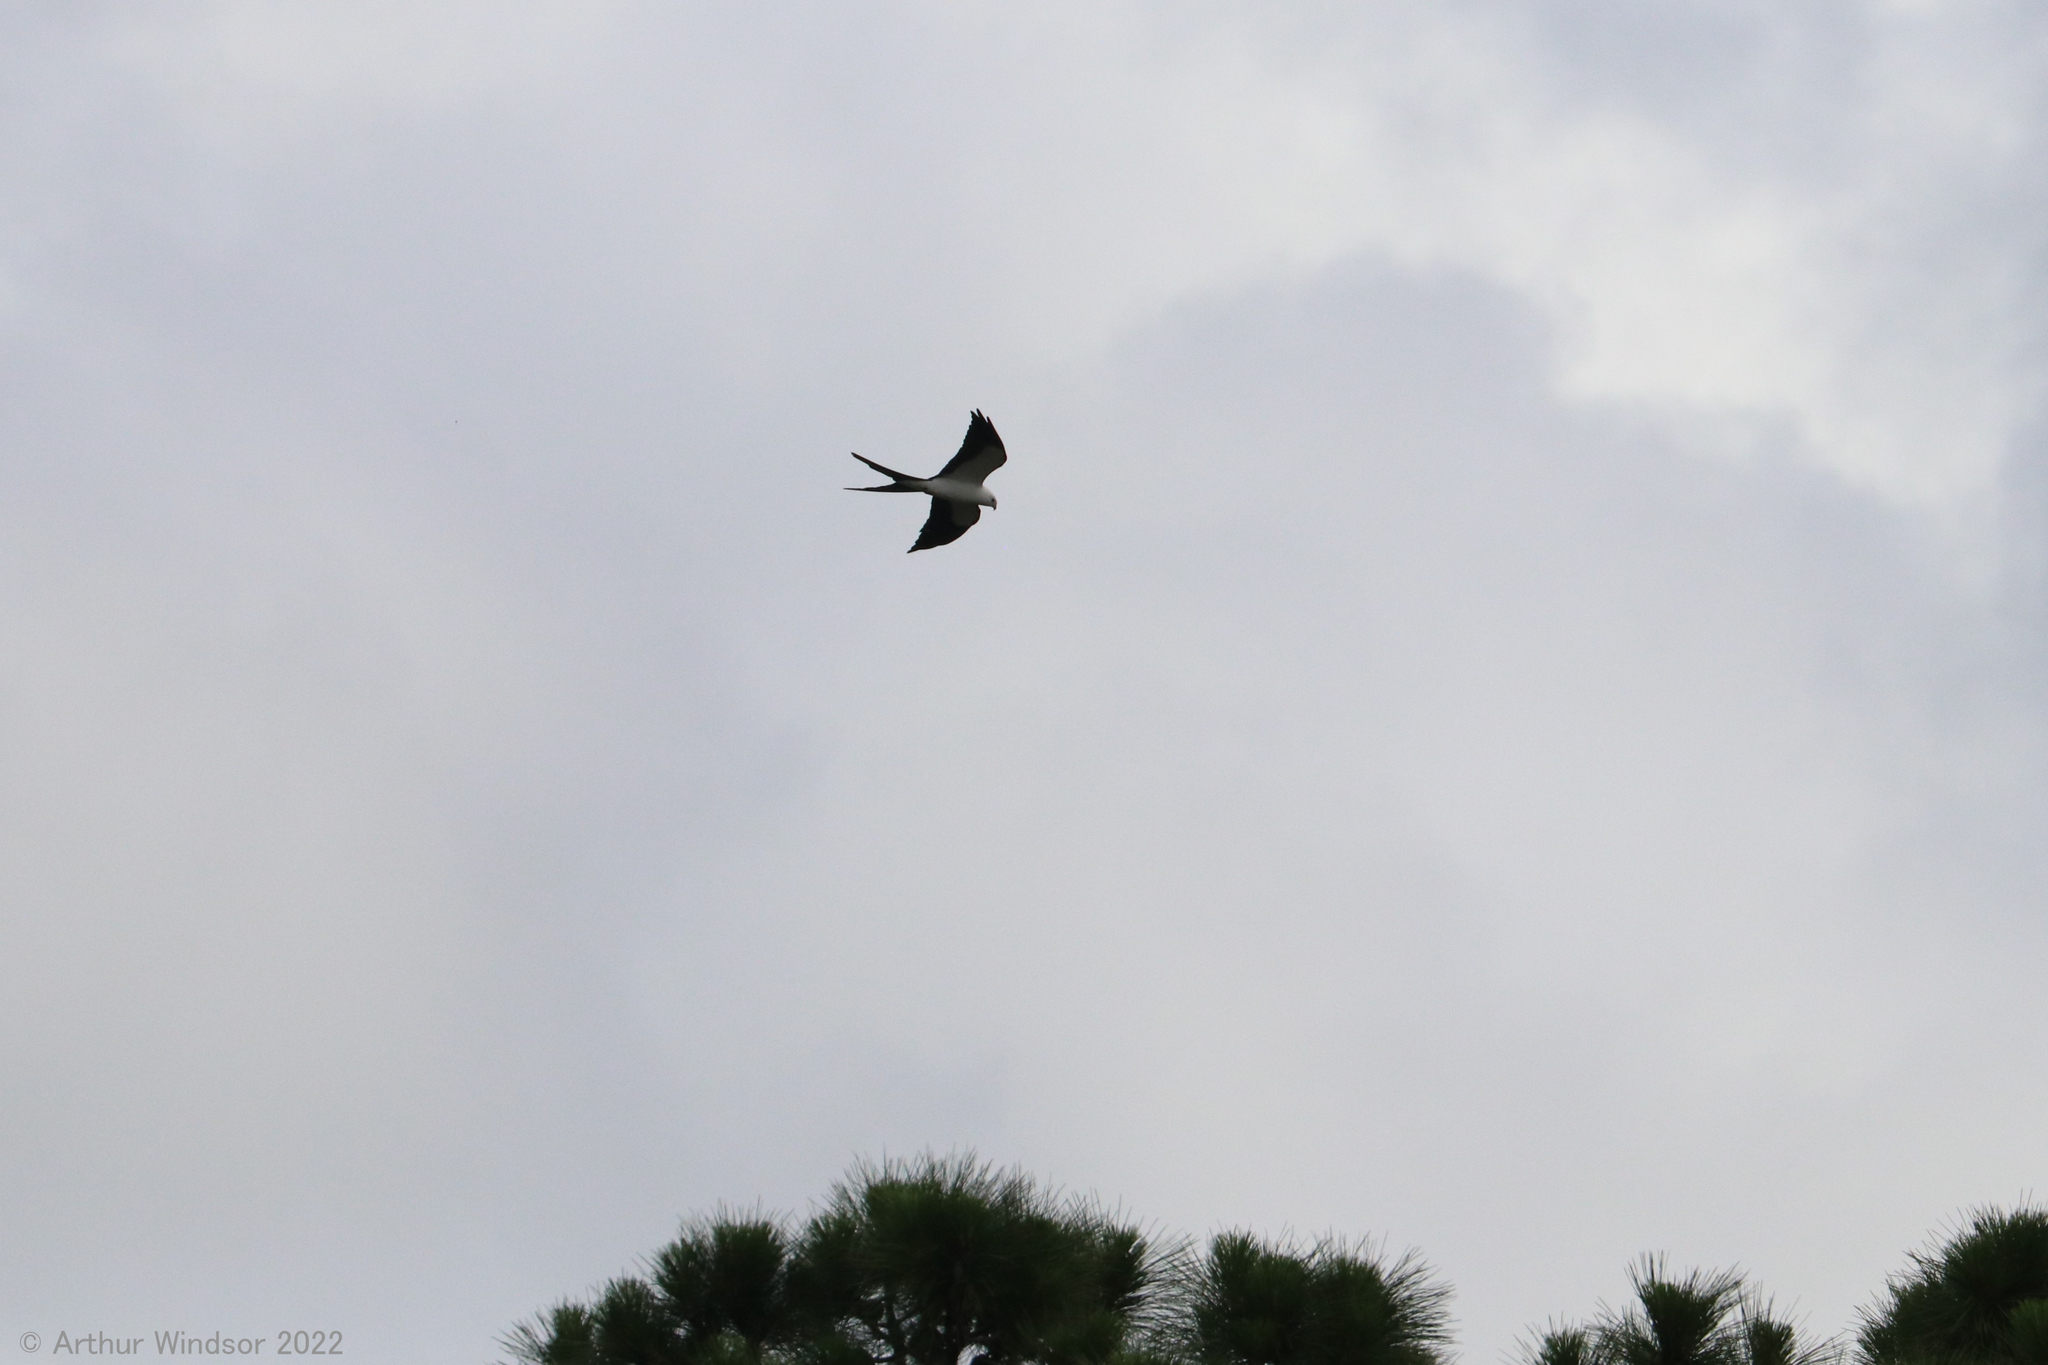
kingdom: Animalia
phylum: Chordata
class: Aves
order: Accipitriformes
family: Accipitridae
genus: Elanoides
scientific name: Elanoides forficatus
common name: Swallow-tailed kite
